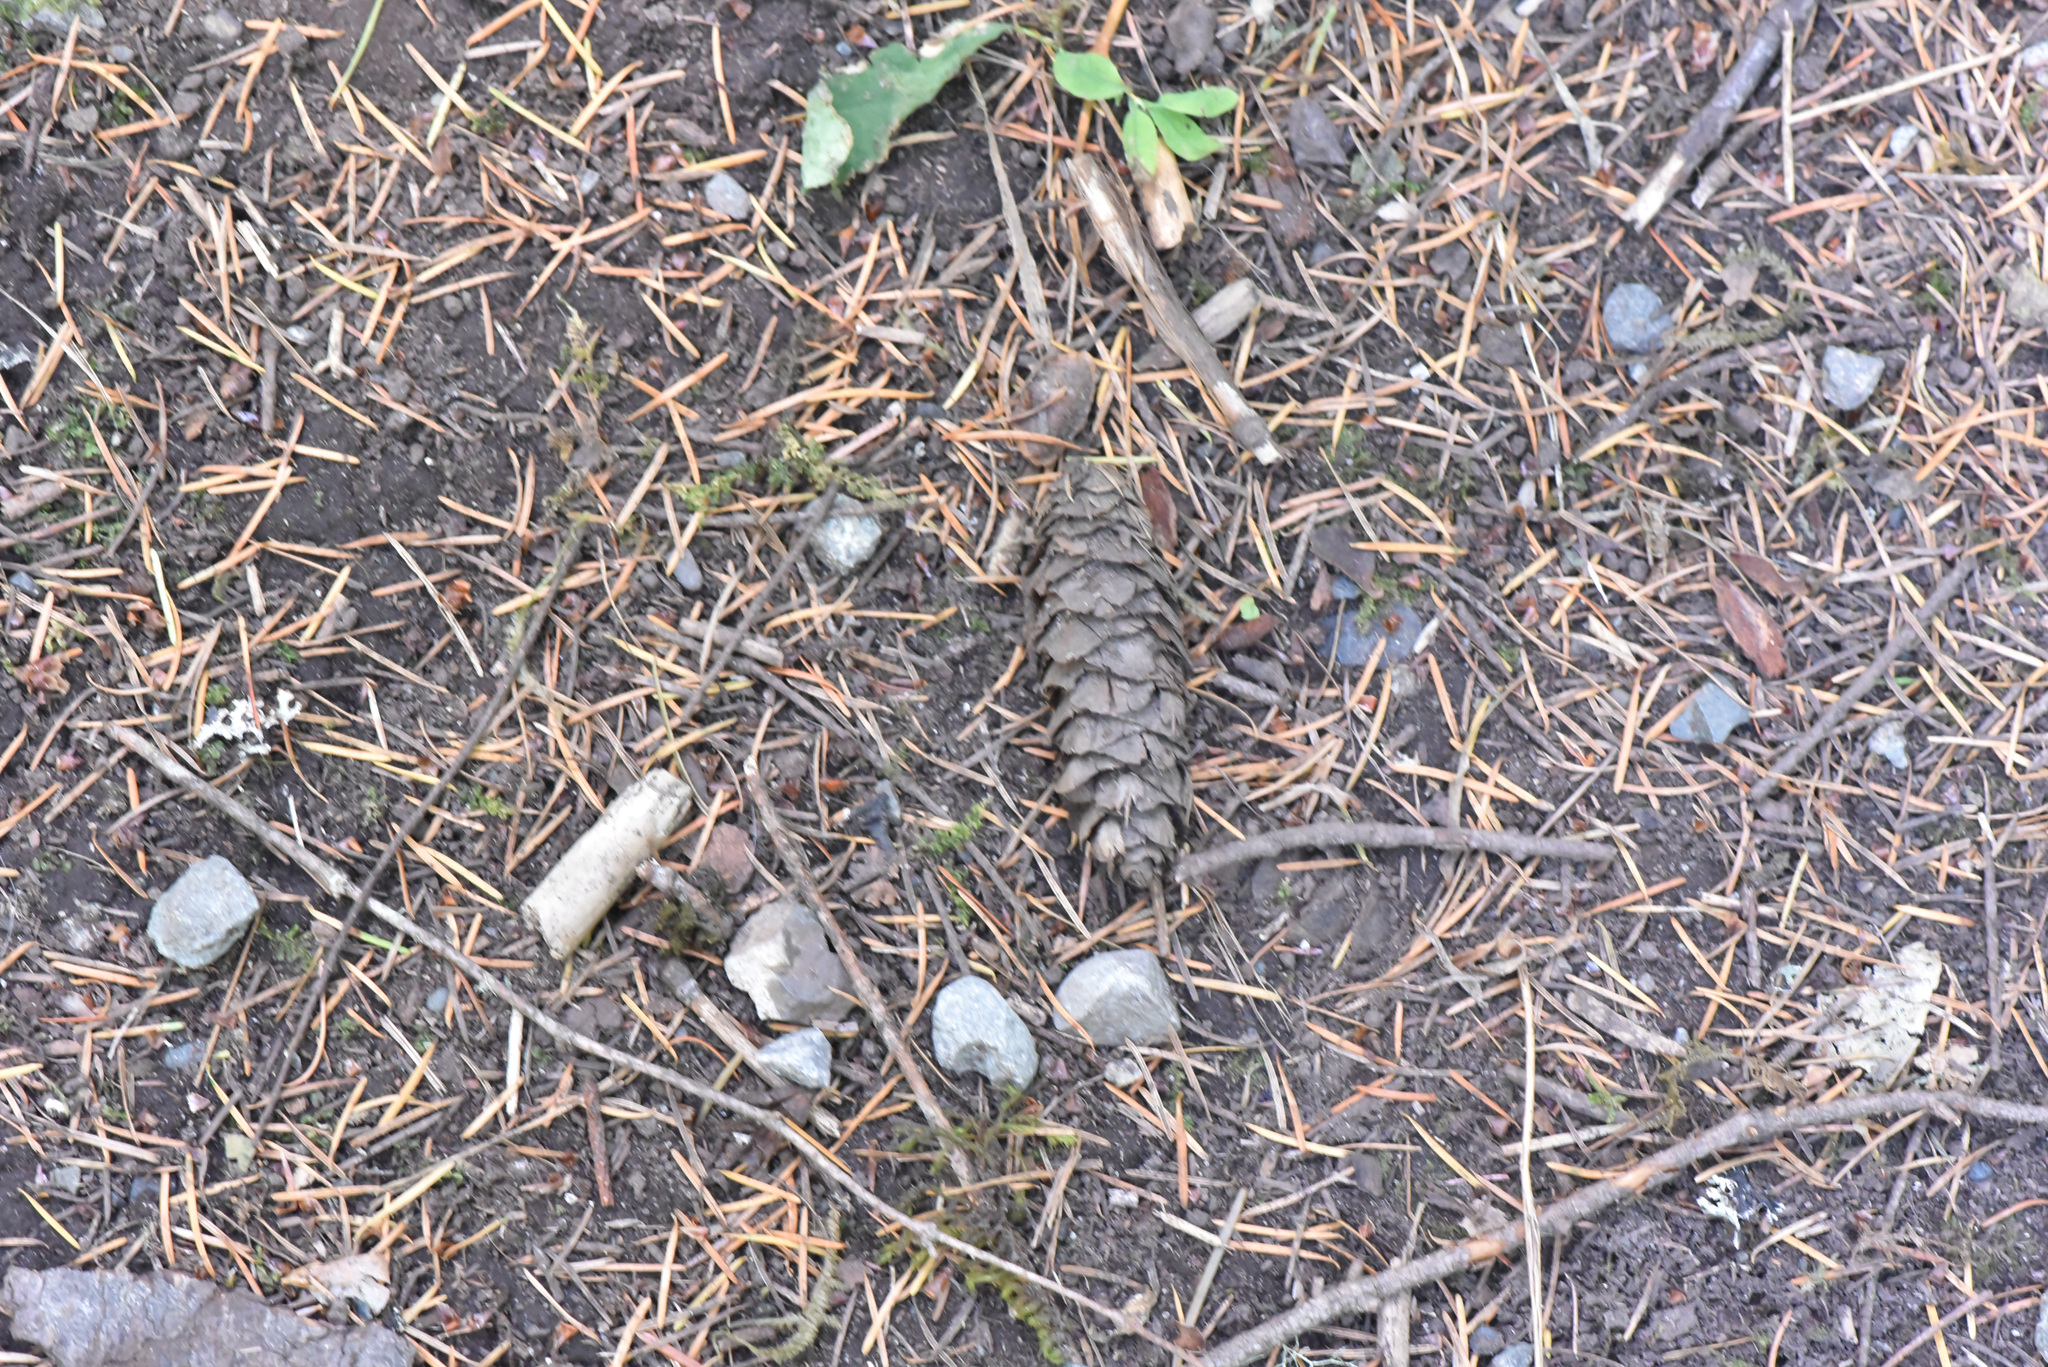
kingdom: Plantae
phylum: Tracheophyta
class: Pinopsida
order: Pinales
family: Pinaceae
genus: Pseudotsuga
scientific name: Pseudotsuga menziesii
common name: Douglas fir
